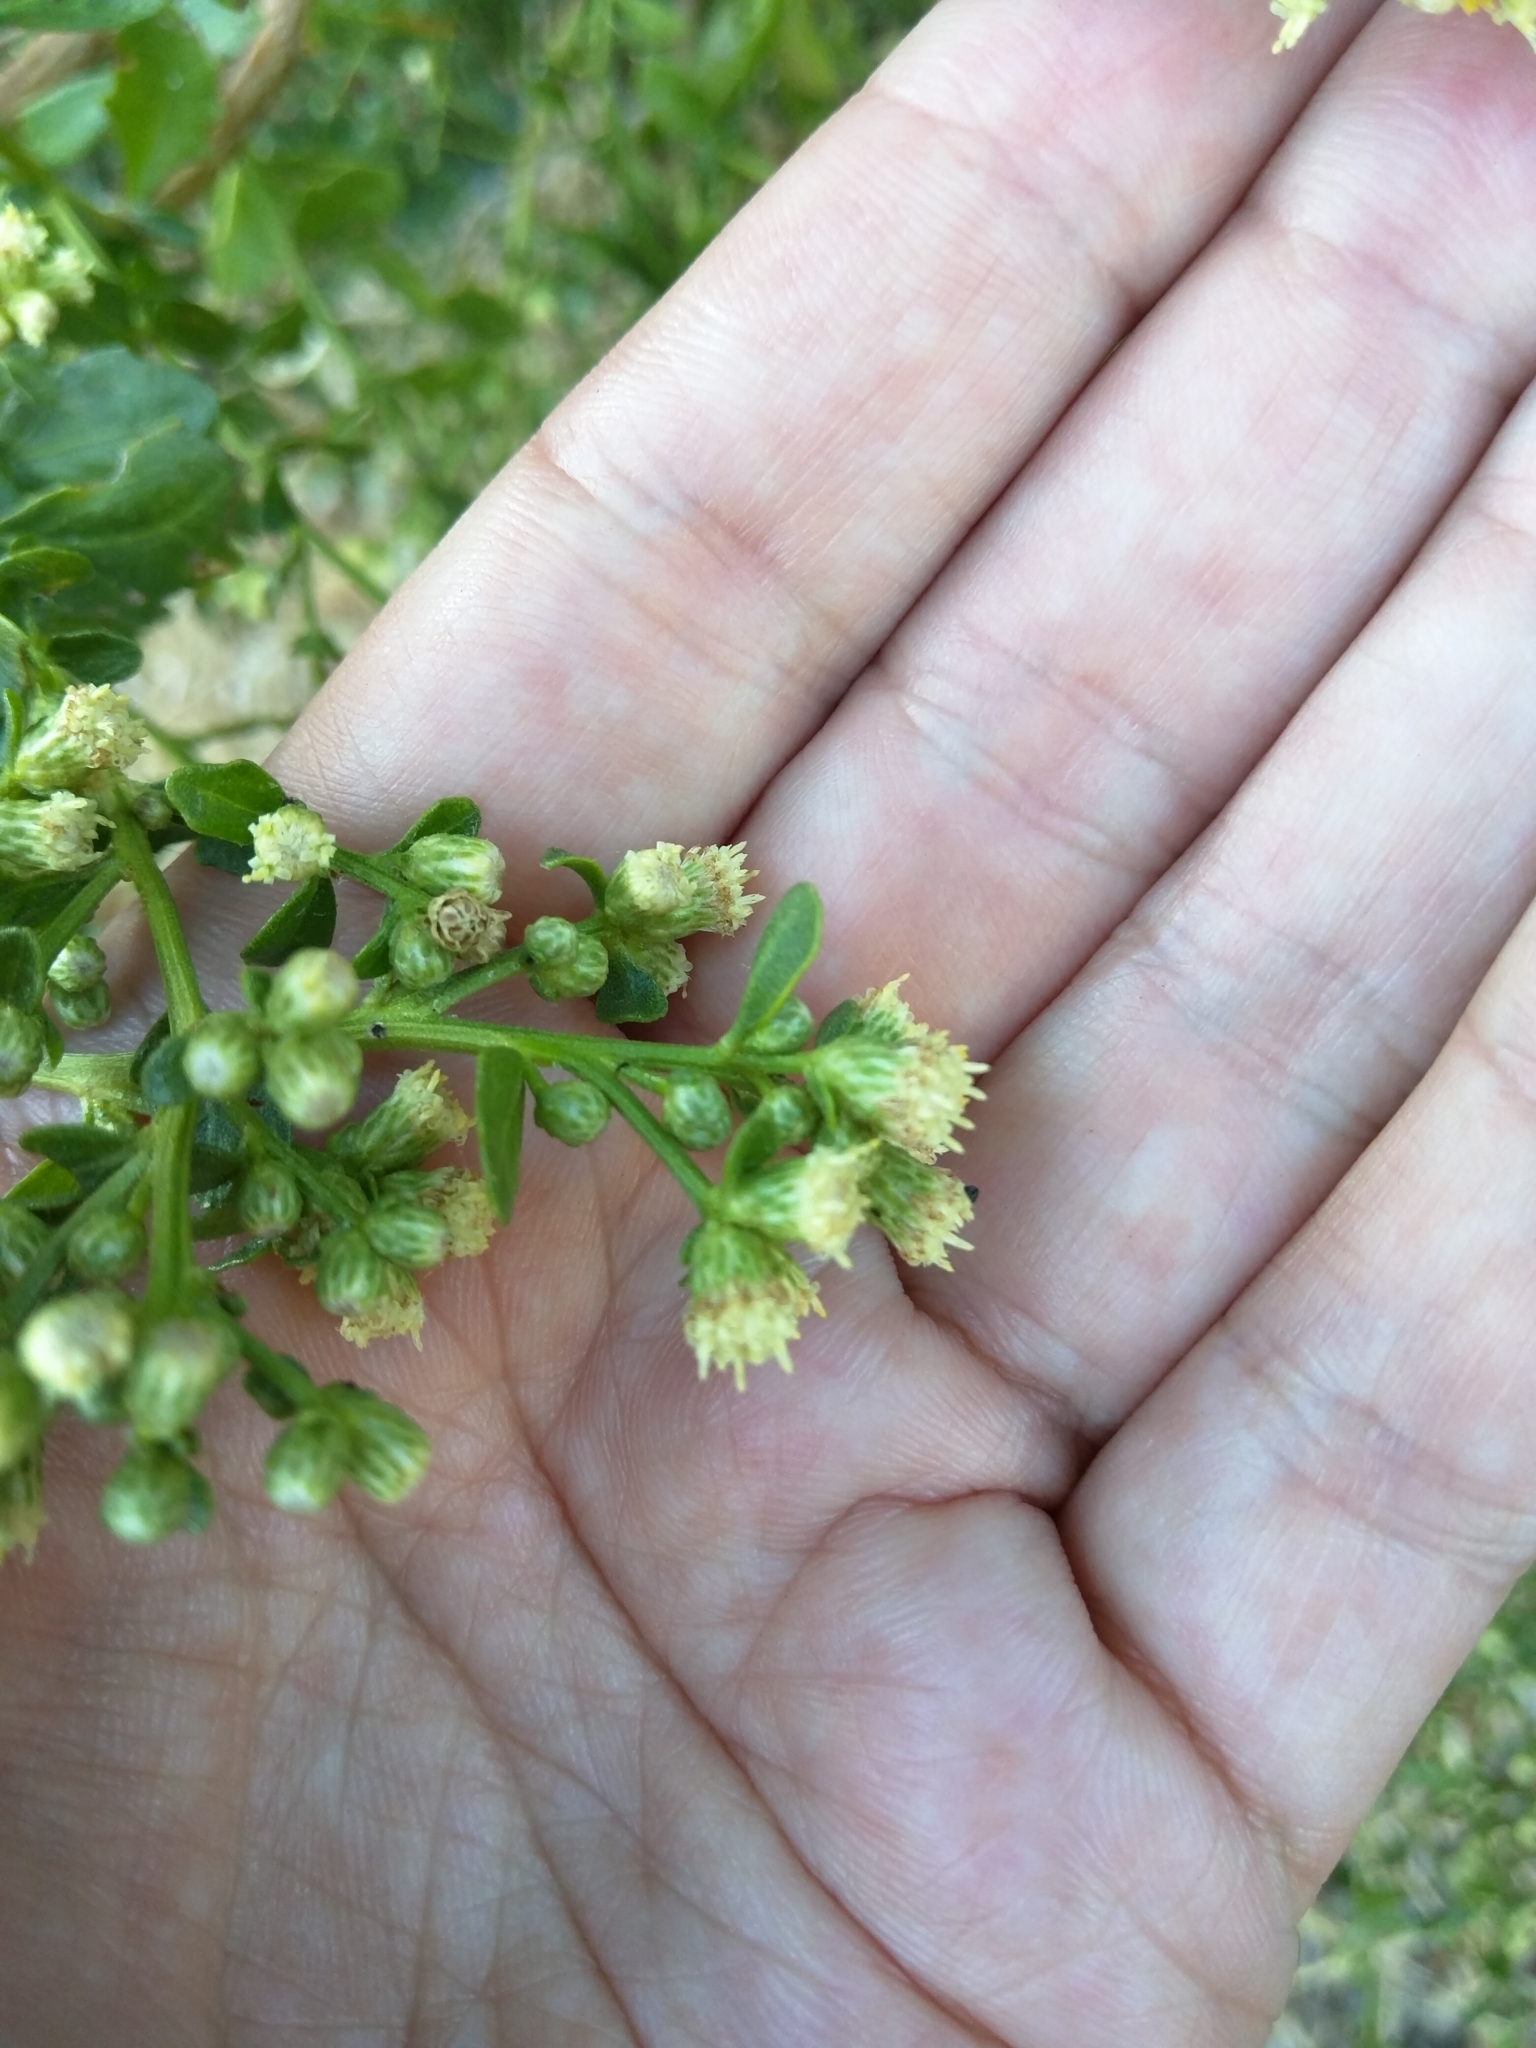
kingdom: Plantae
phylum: Tracheophyta
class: Magnoliopsida
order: Asterales
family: Asteraceae
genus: Baccharis
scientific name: Baccharis pilularis
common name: Coyotebrush
